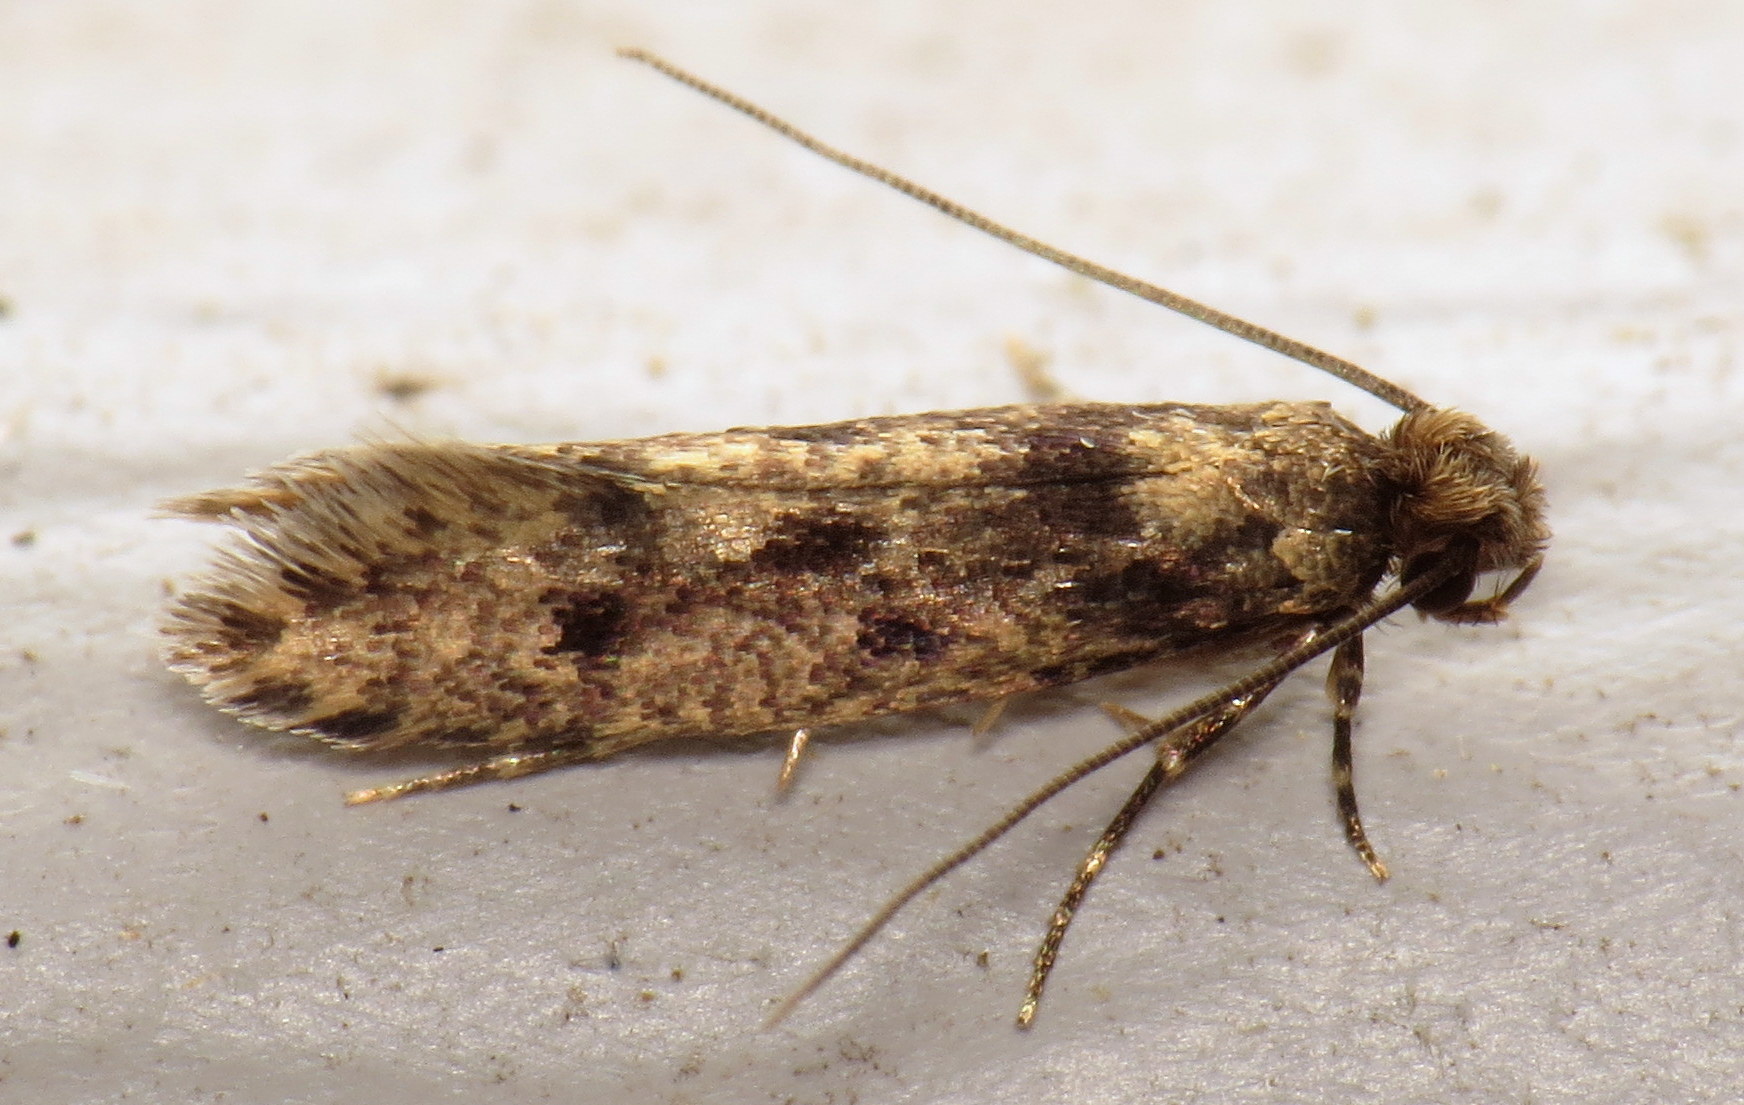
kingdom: Animalia
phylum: Arthropoda
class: Insecta
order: Lepidoptera
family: Tineidae
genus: Niditinea
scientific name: Niditinea fuscella
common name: Brown-dotted clothes moth
